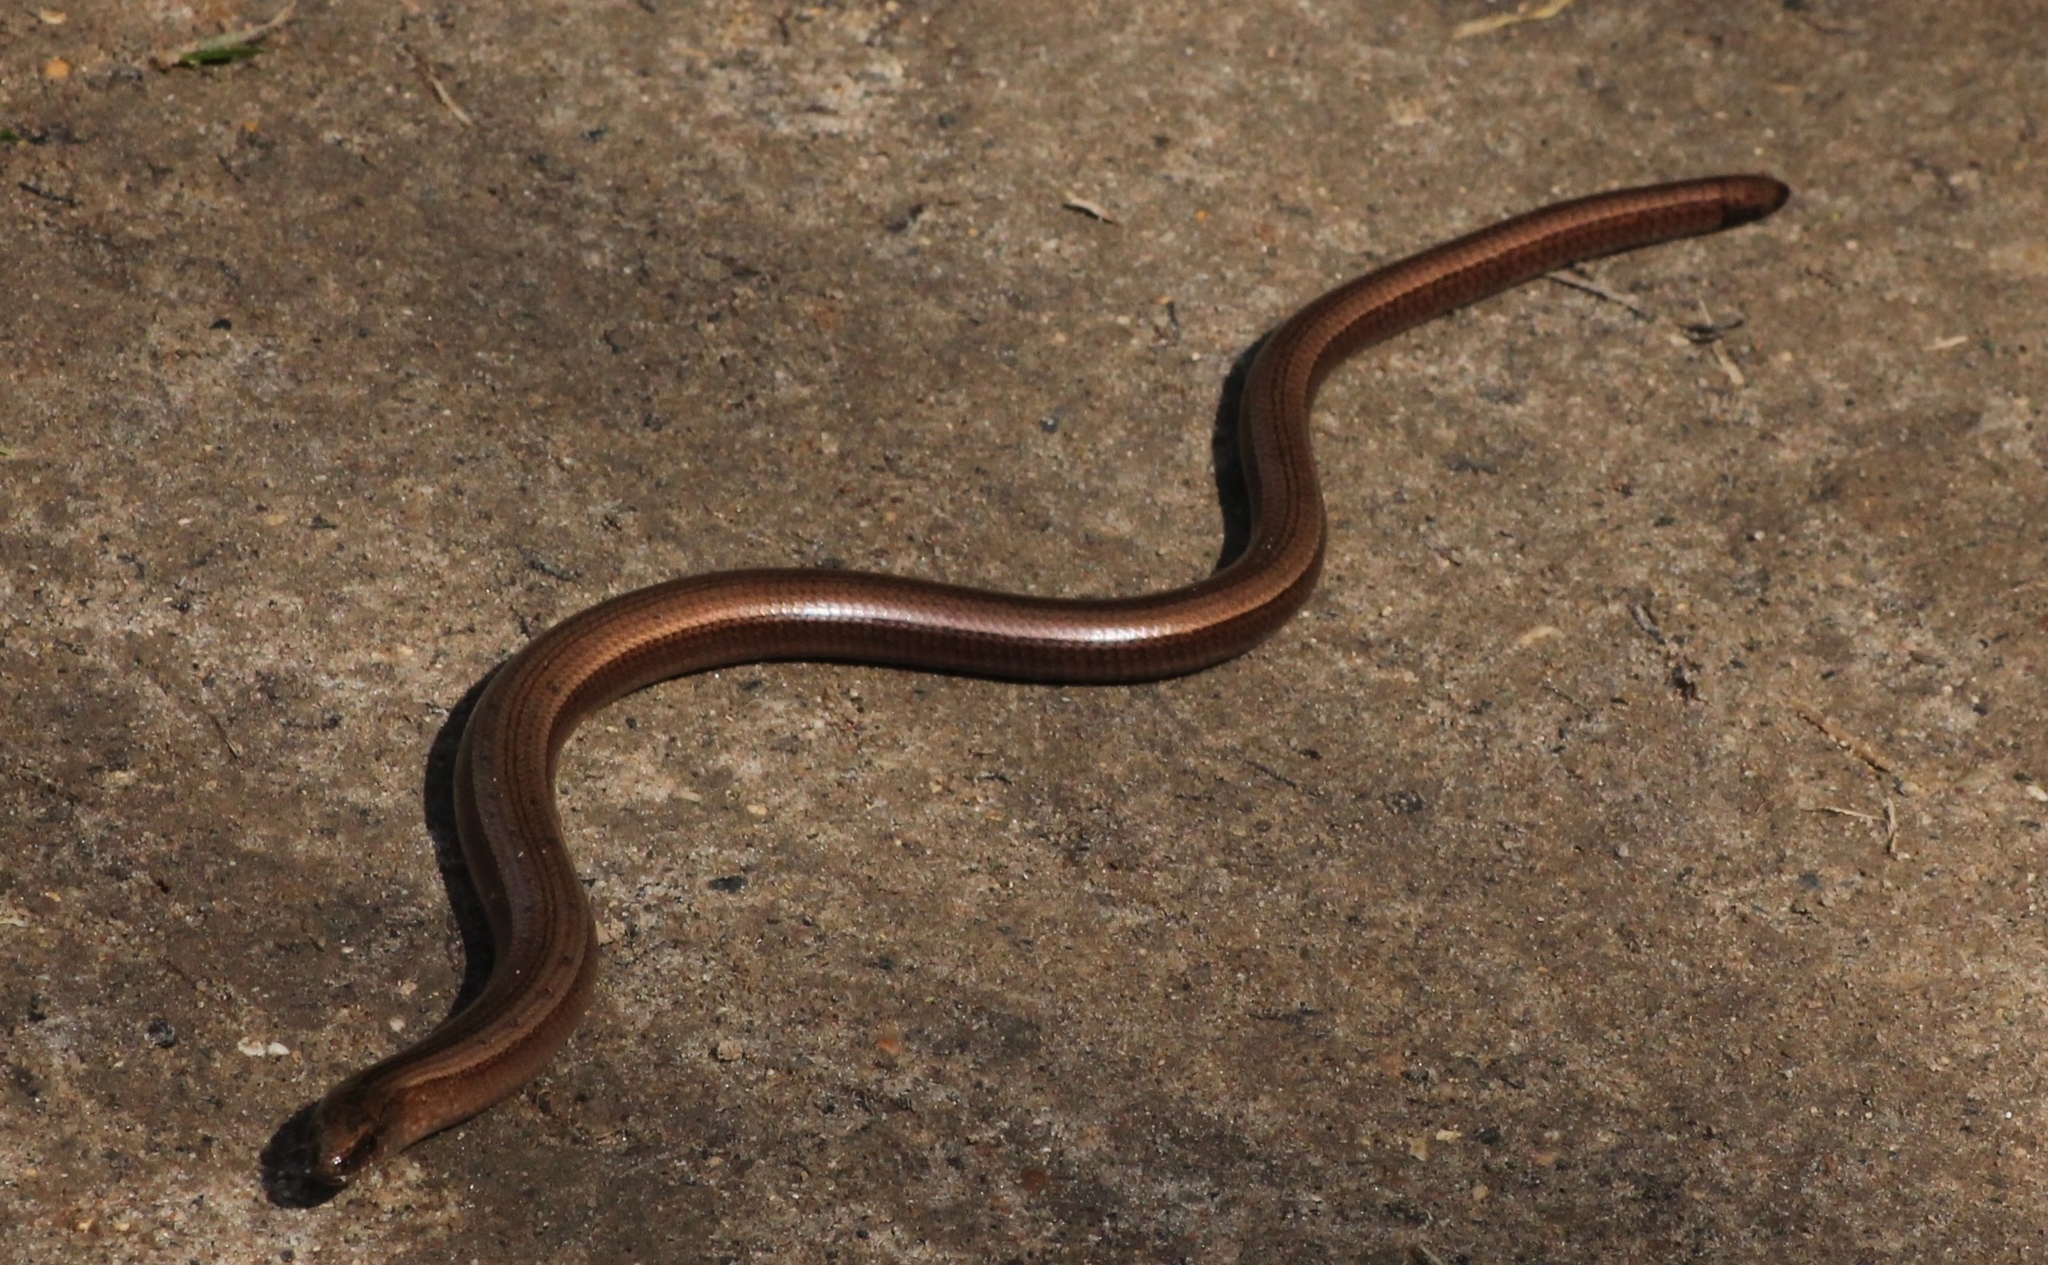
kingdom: Animalia
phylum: Chordata
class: Squamata
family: Anguidae
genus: Anguis
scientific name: Anguis colchica
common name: Slow worm
